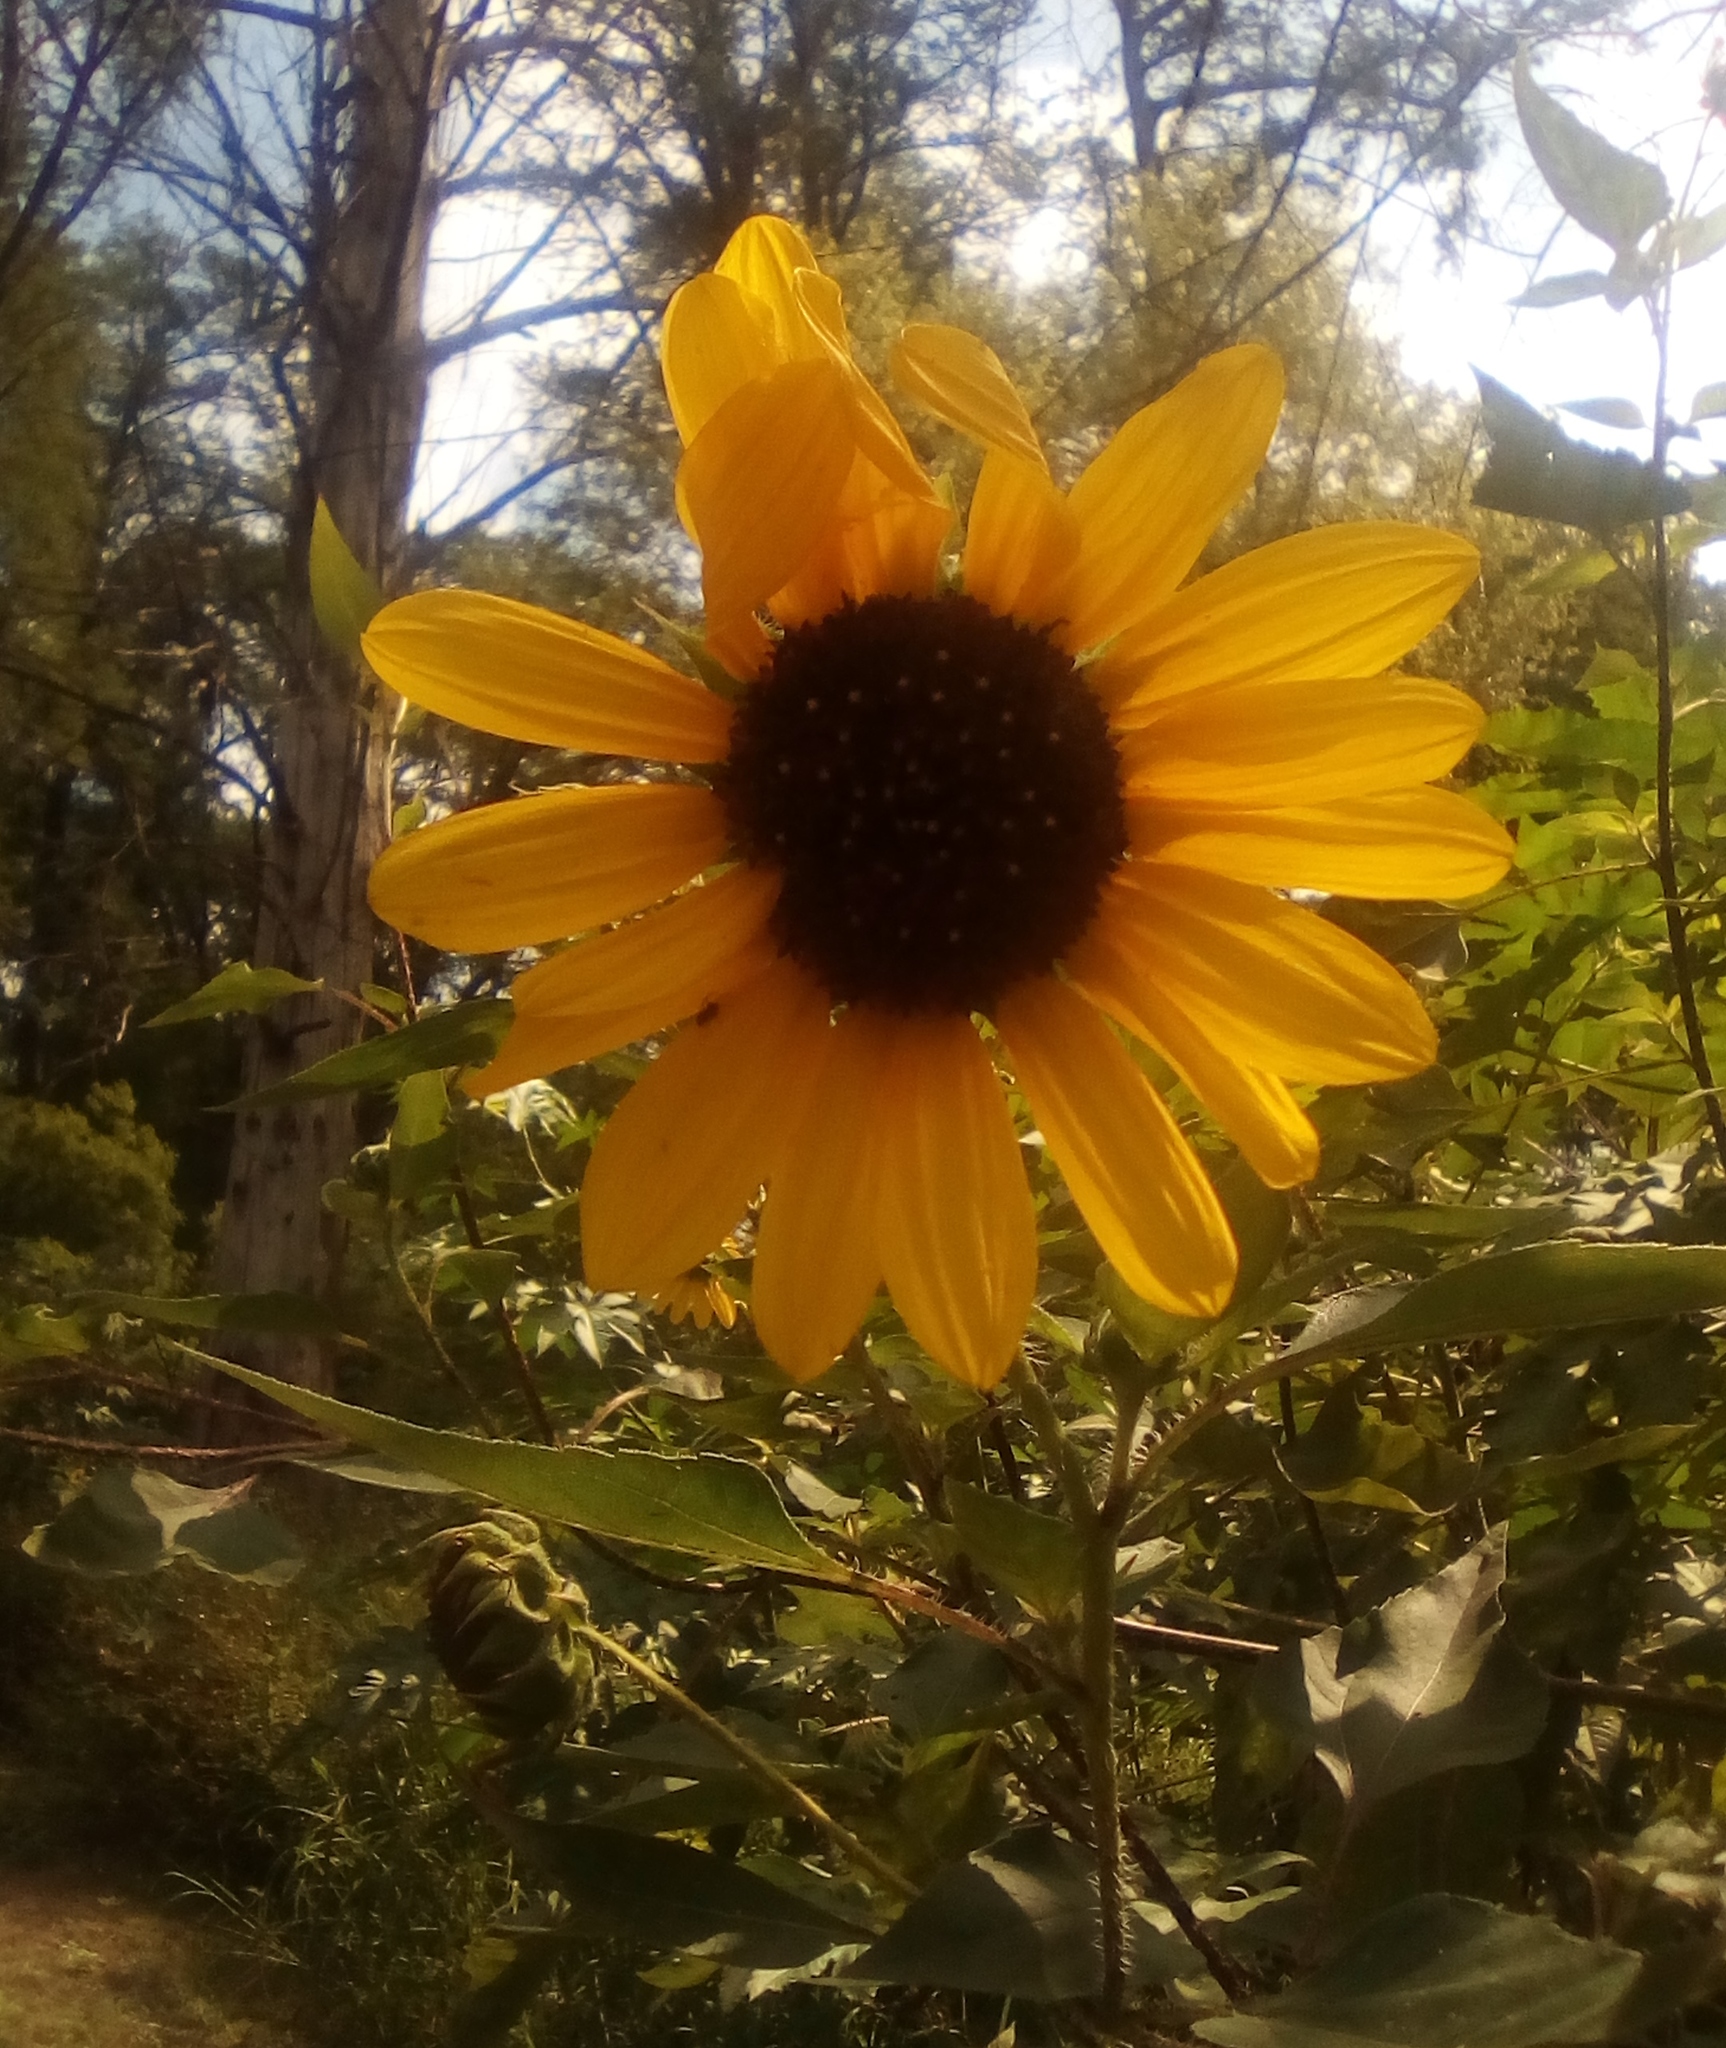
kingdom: Plantae
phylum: Tracheophyta
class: Magnoliopsida
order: Asterales
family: Asteraceae
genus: Helianthus
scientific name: Helianthus annuus
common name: Sunflower
